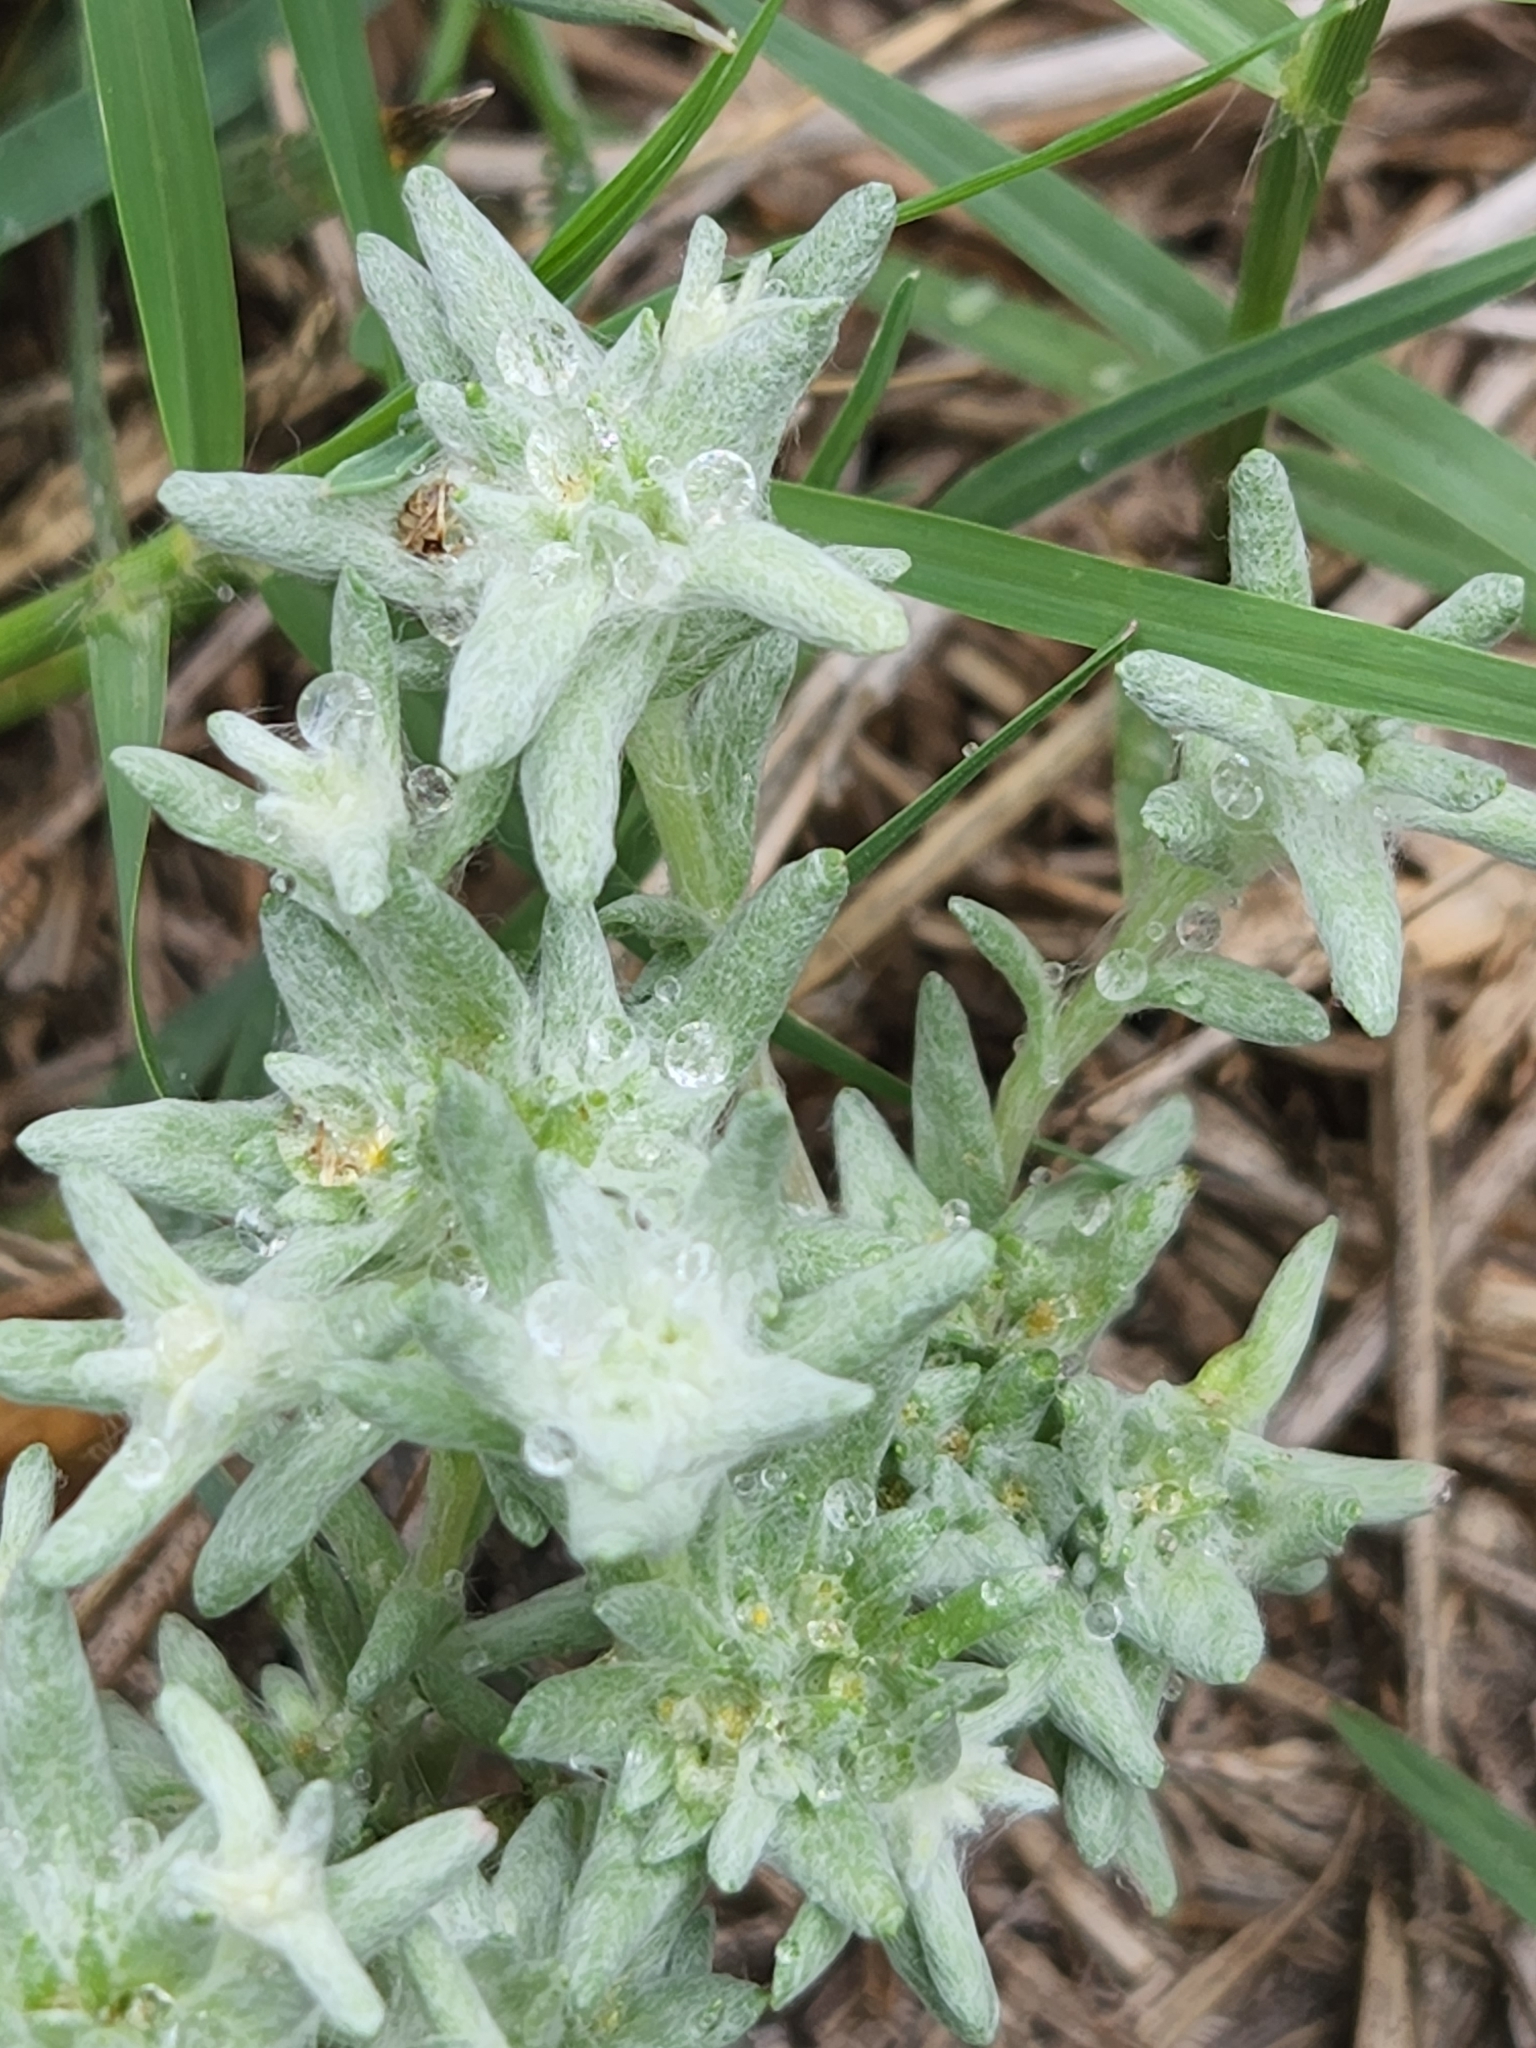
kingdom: Plantae
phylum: Tracheophyta
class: Magnoliopsida
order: Asterales
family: Asteraceae
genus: Diaperia
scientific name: Diaperia prolifera
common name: Big-head rabbit-tobacco
